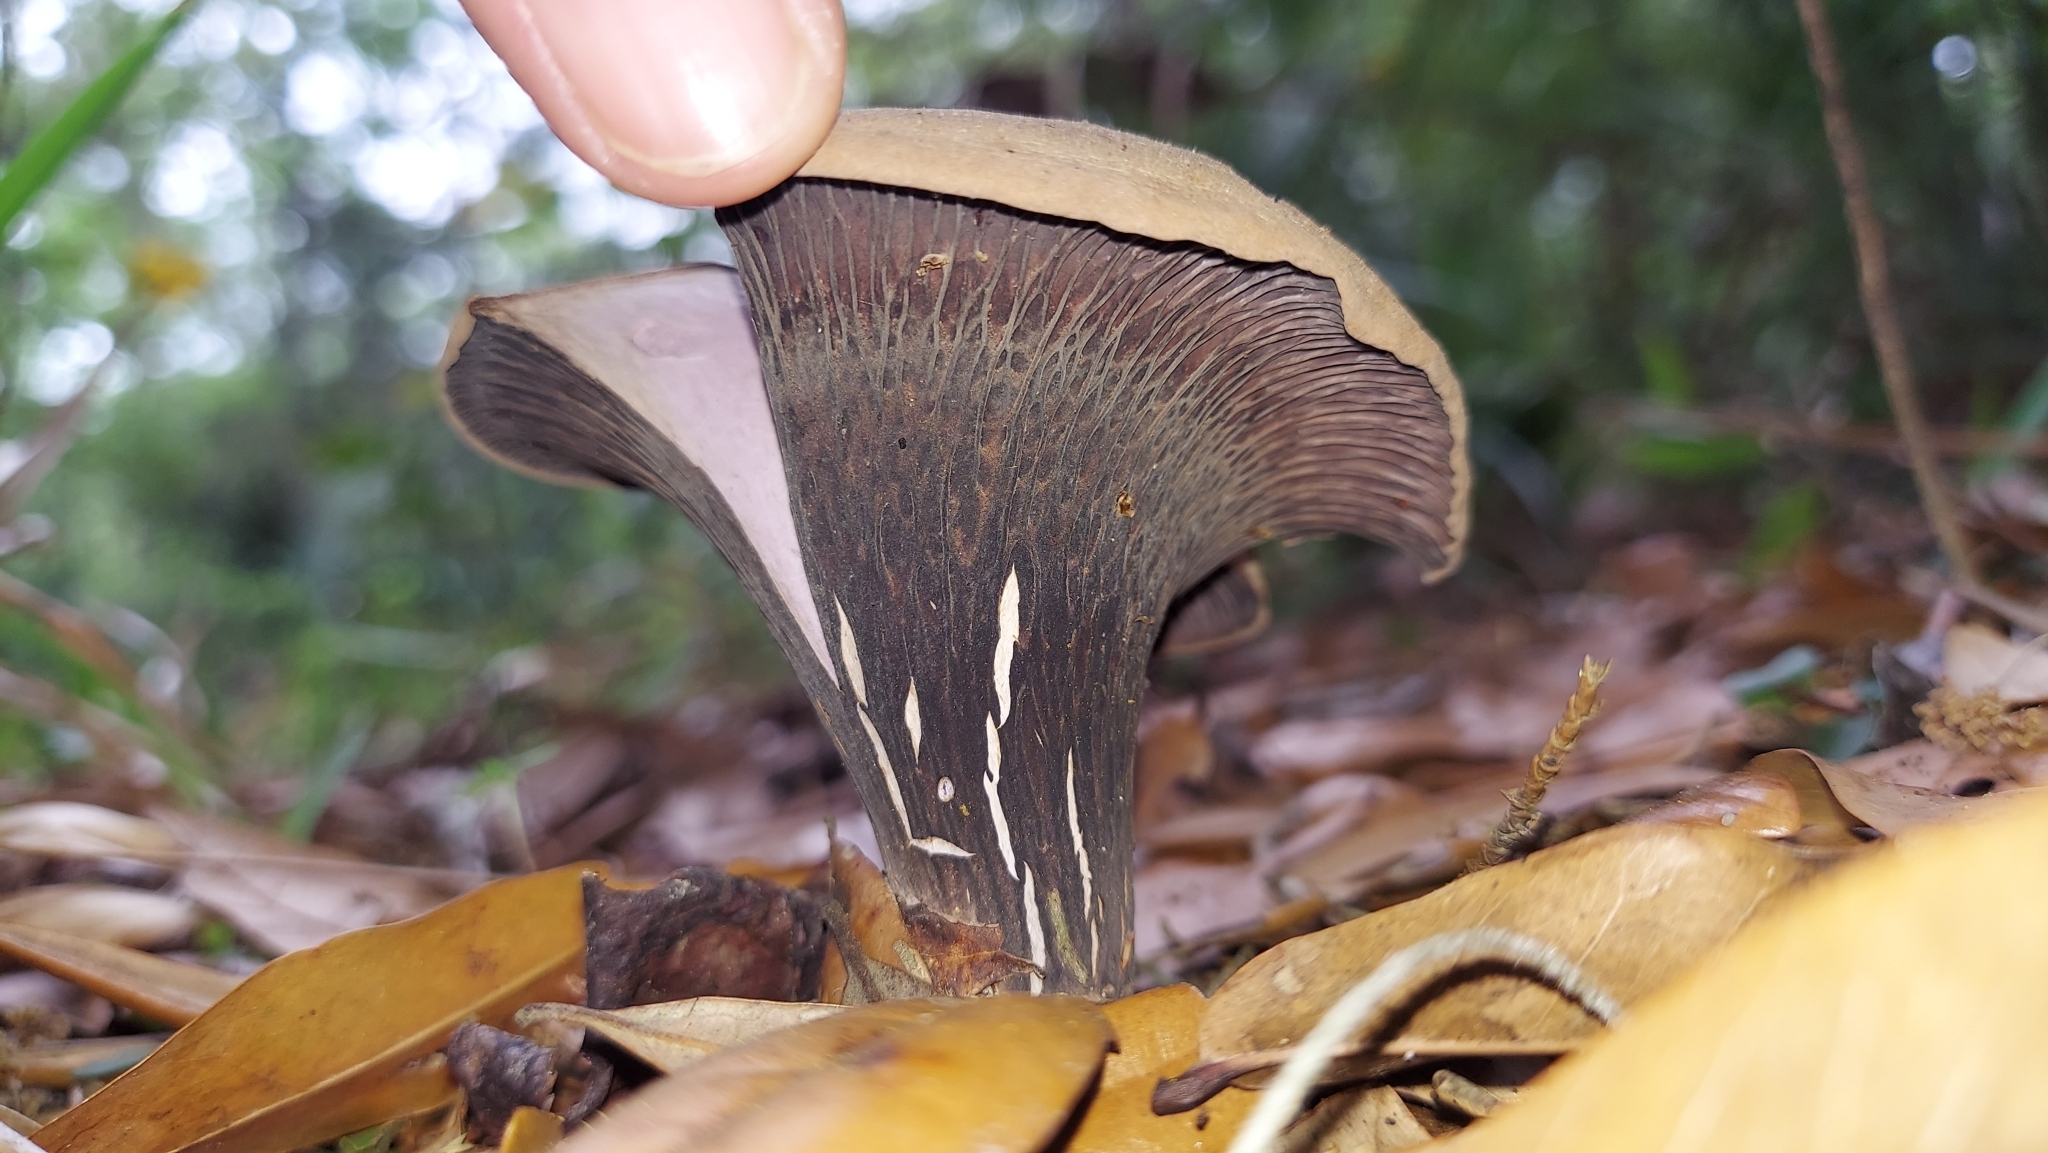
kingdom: Fungi
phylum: Basidiomycota
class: Agaricomycetes
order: Gomphales
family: Gomphaceae
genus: Gomphus
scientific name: Gomphus ludovicianus
